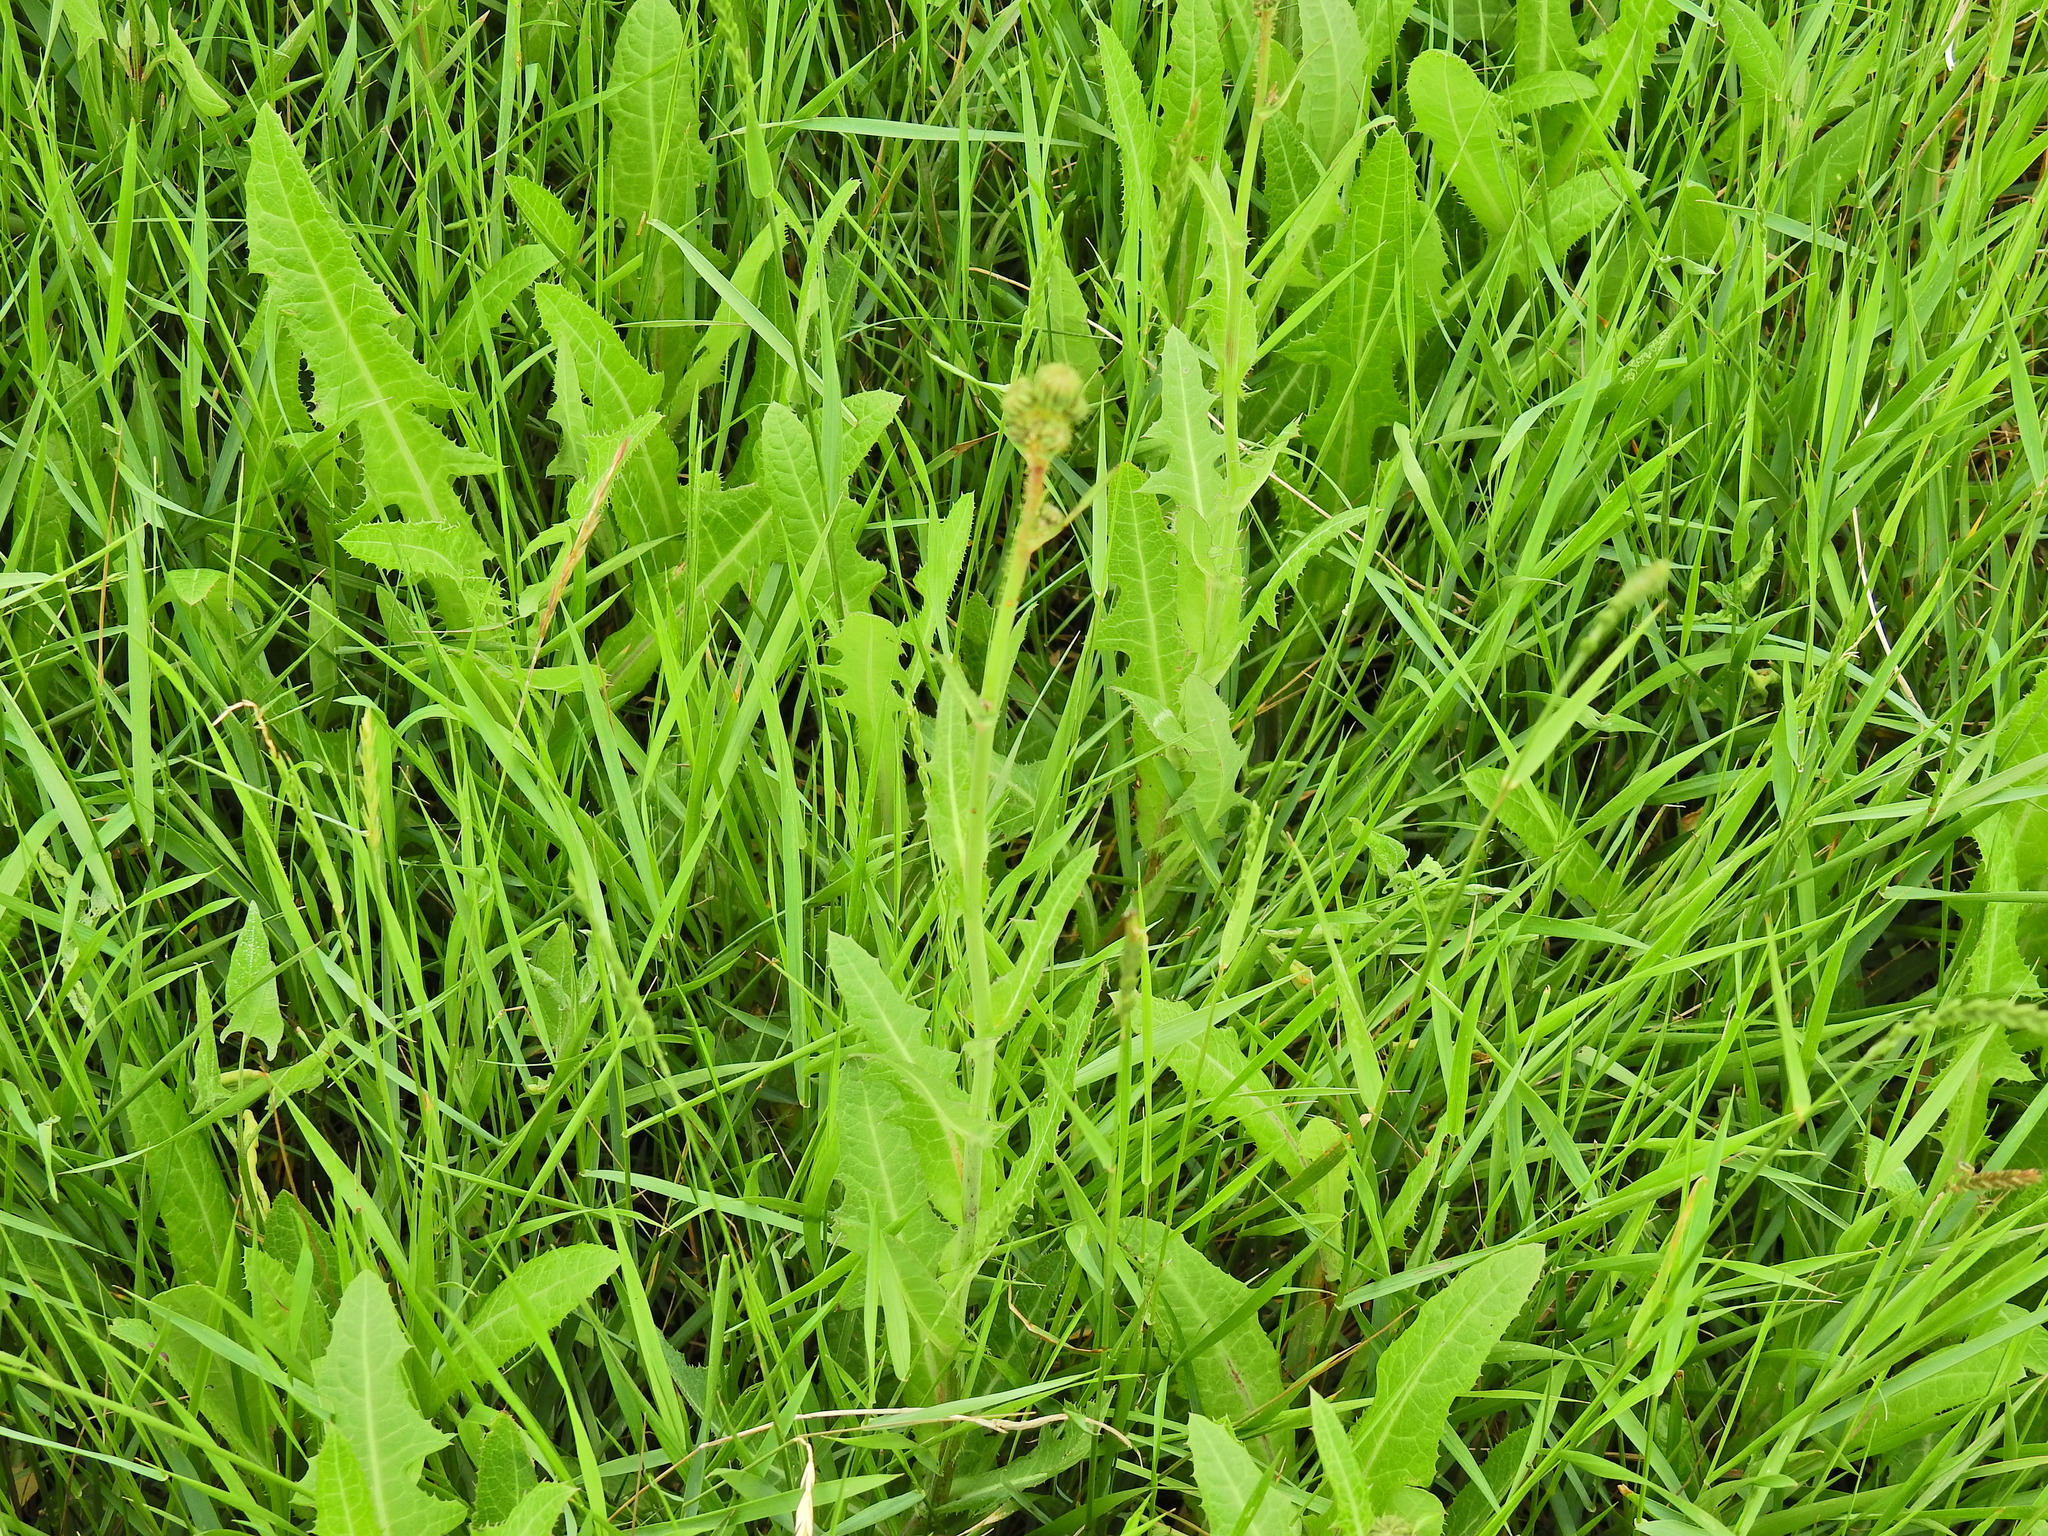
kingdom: Plantae
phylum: Tracheophyta
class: Magnoliopsida
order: Asterales
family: Asteraceae
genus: Sonchus
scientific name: Sonchus arvensis
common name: Perennial sow-thistle
